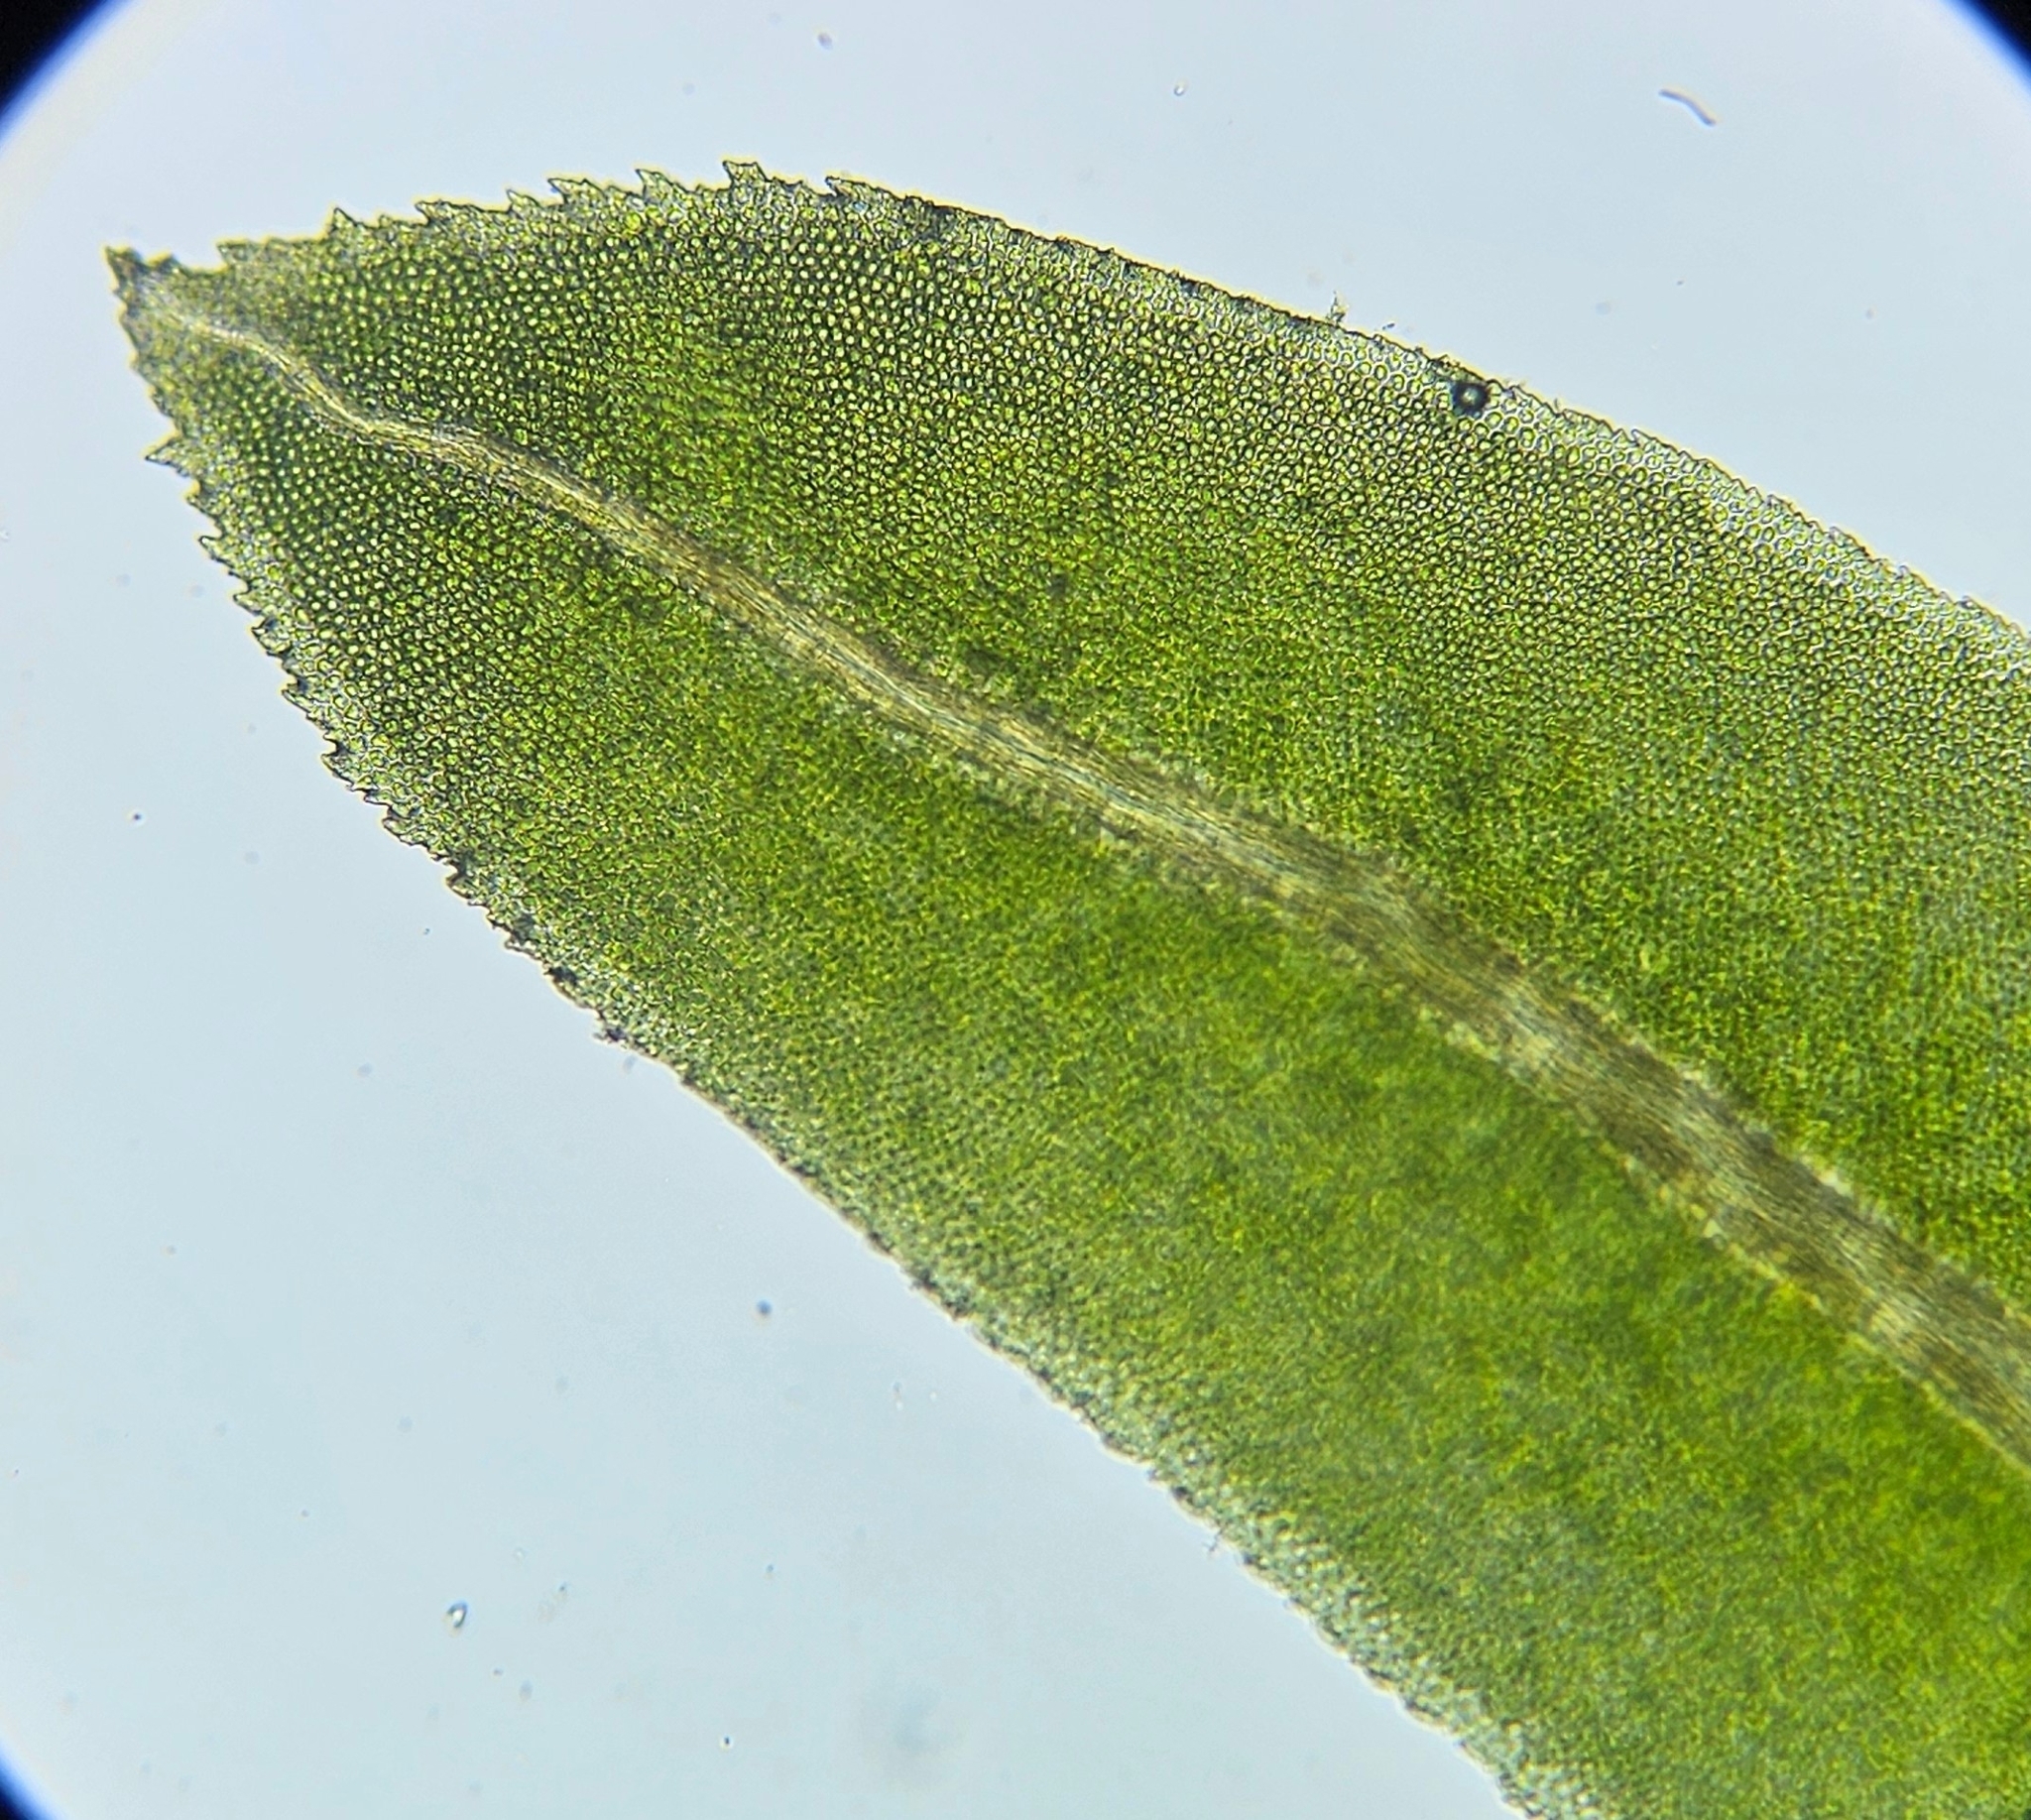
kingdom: Plantae
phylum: Bryophyta
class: Bryopsida
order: Dicranales
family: Fissidentaceae
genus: Fissidens
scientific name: Fissidens dubius
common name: Rock pocket moss
